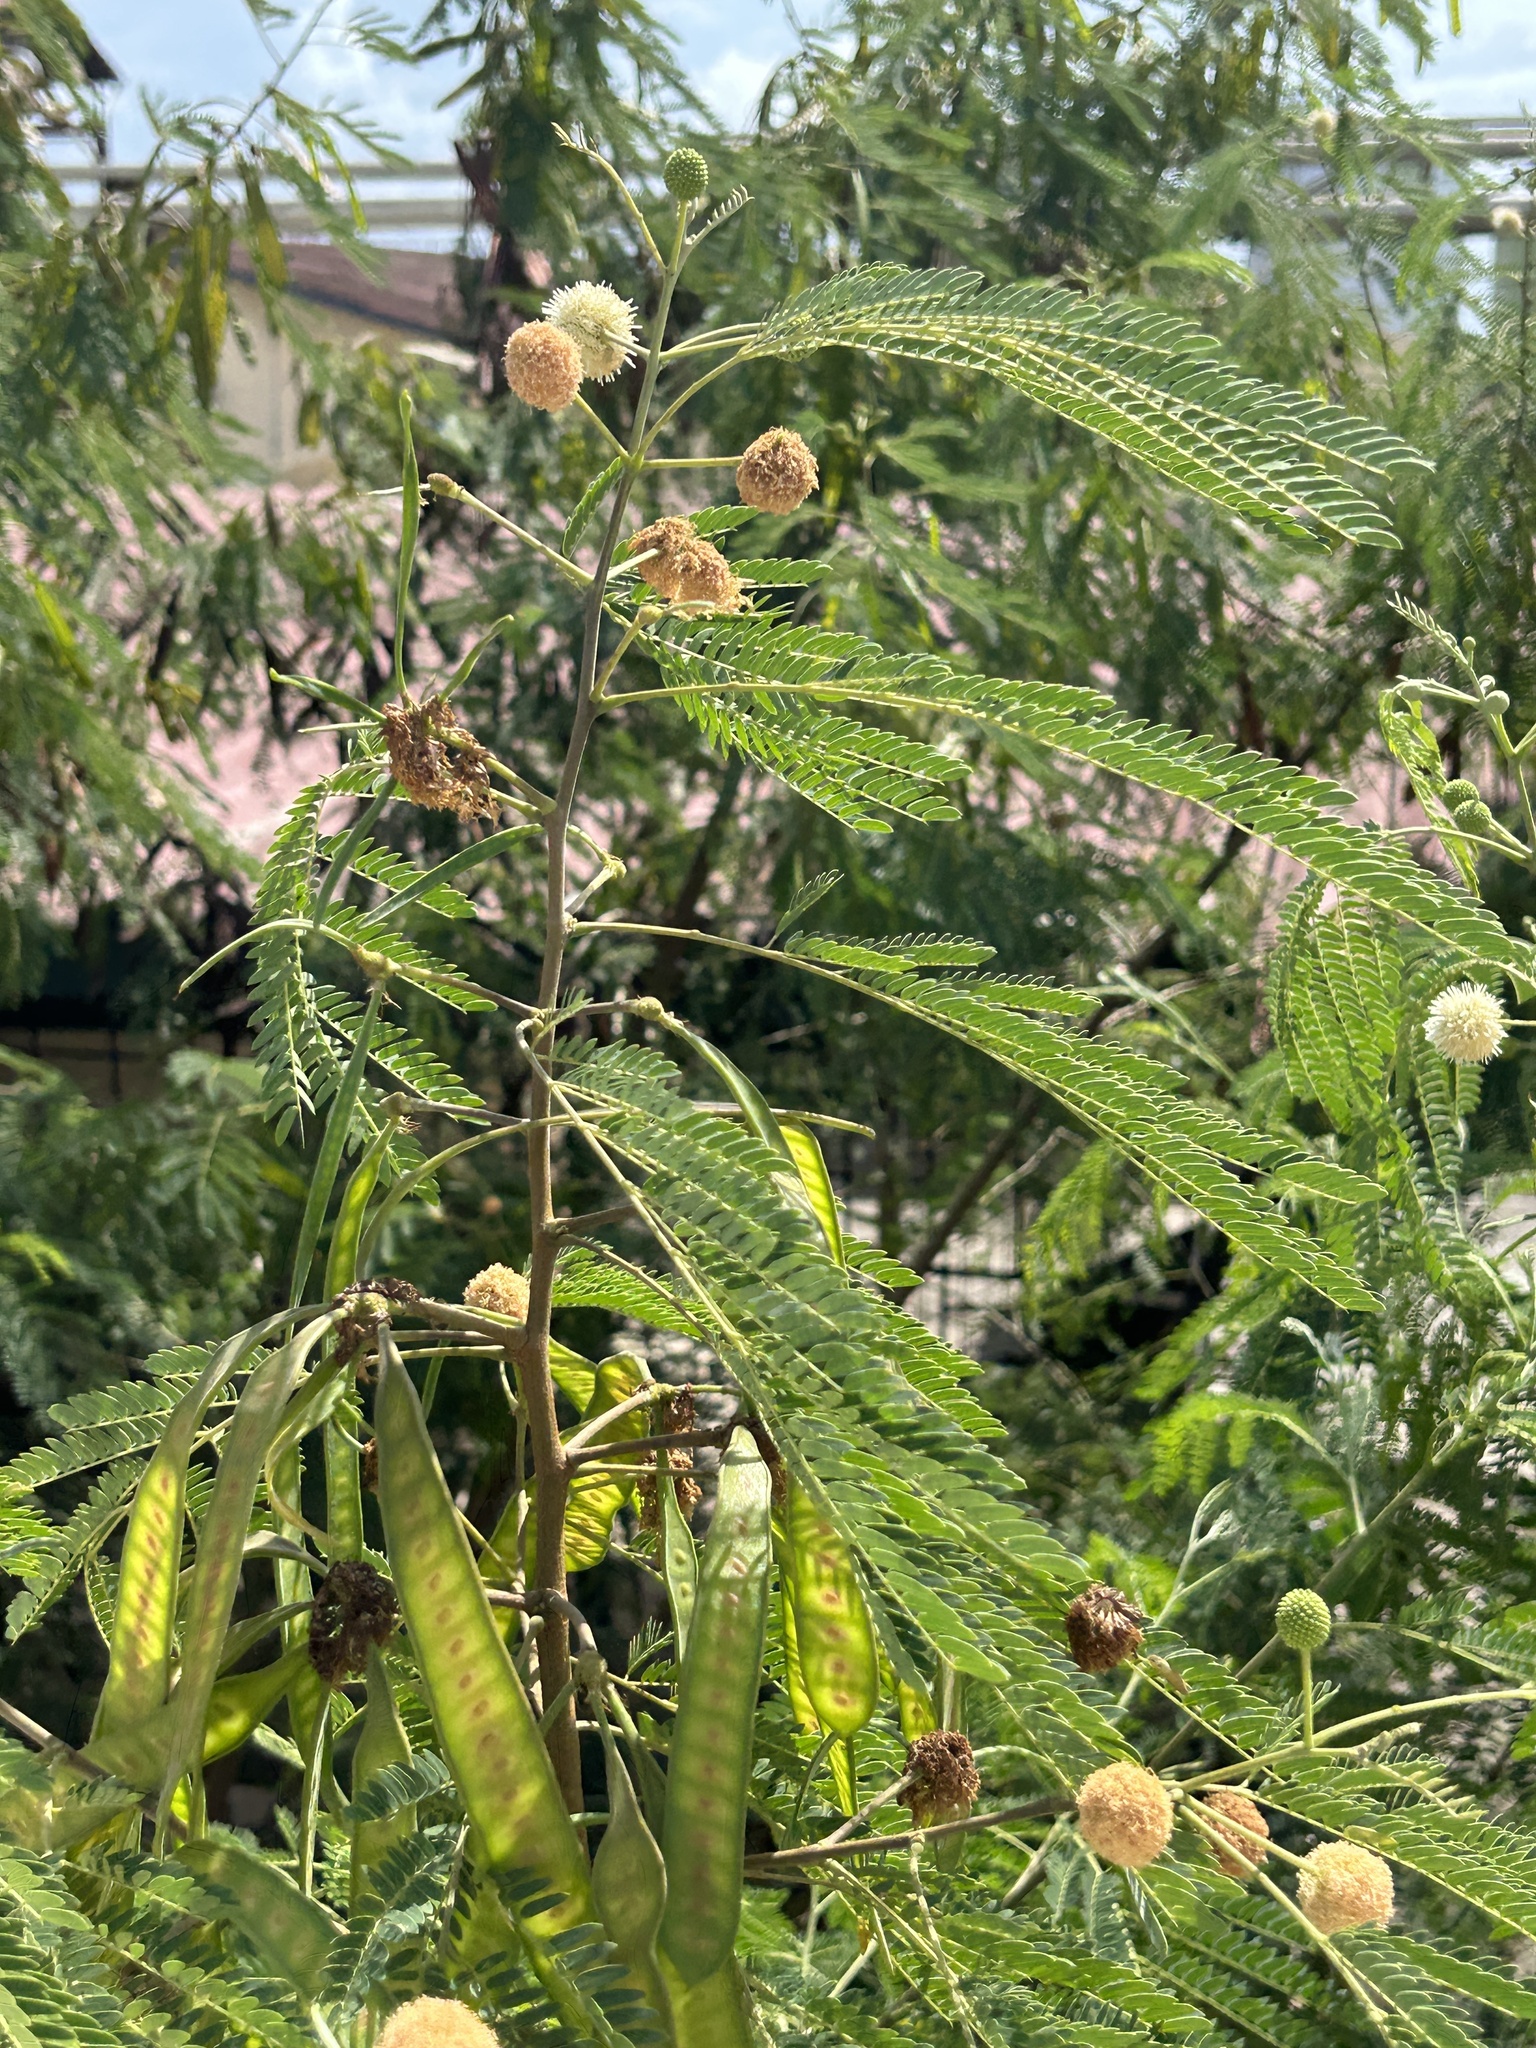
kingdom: Plantae
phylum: Tracheophyta
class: Magnoliopsida
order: Fabales
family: Fabaceae
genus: Leucaena
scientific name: Leucaena leucocephala
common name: White leadtree
